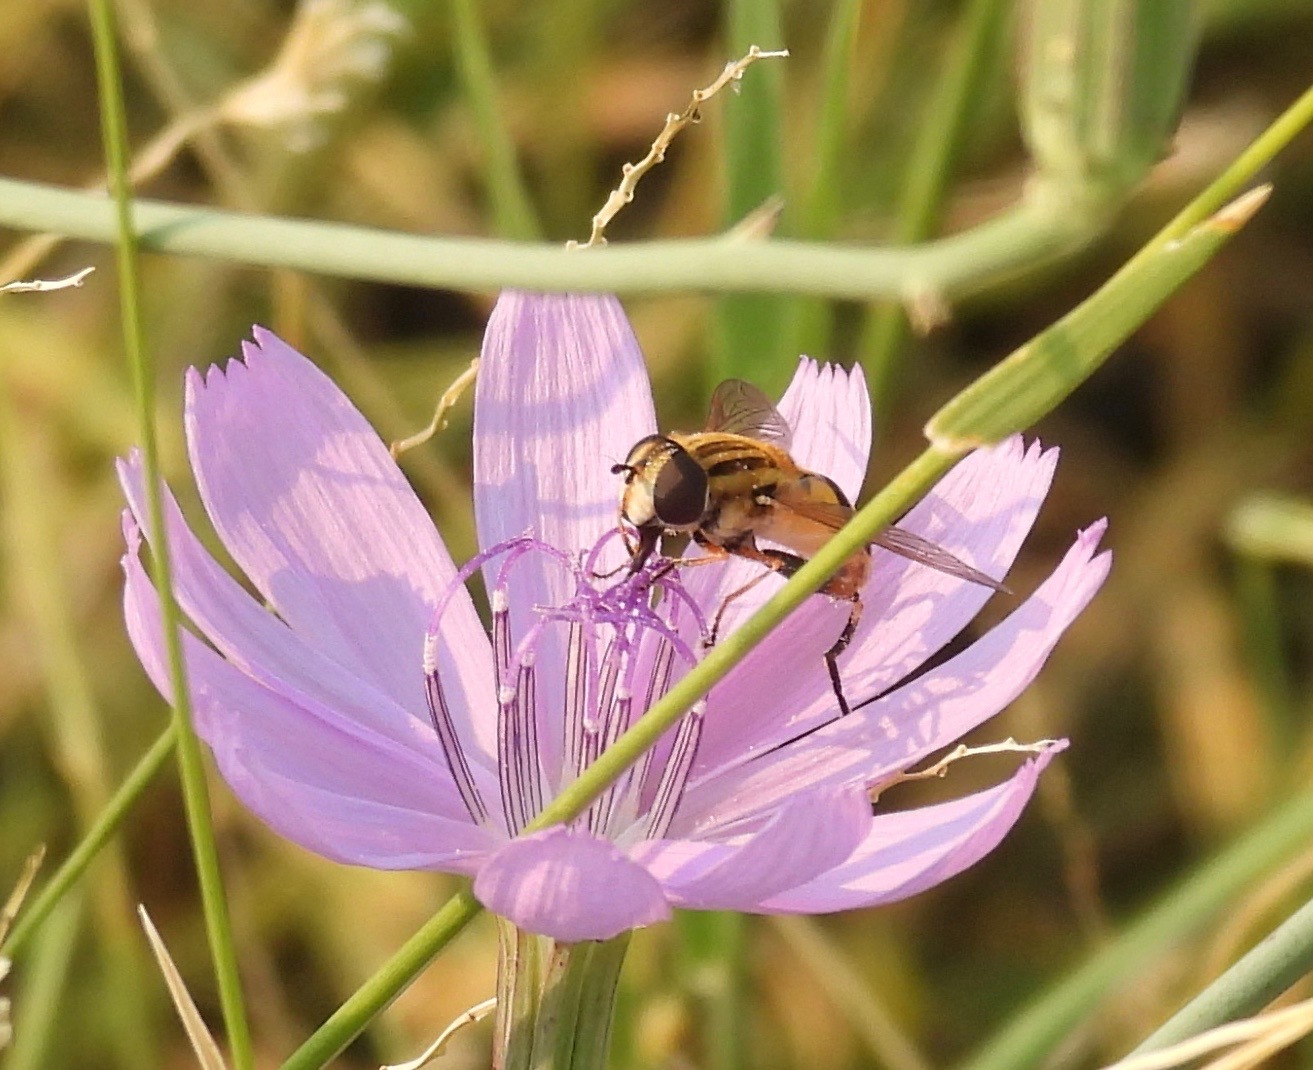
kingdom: Animalia
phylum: Arthropoda
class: Insecta
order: Diptera
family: Syrphidae
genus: Helophilus
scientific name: Helophilus latifrons
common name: Broad-headed marsh fly
